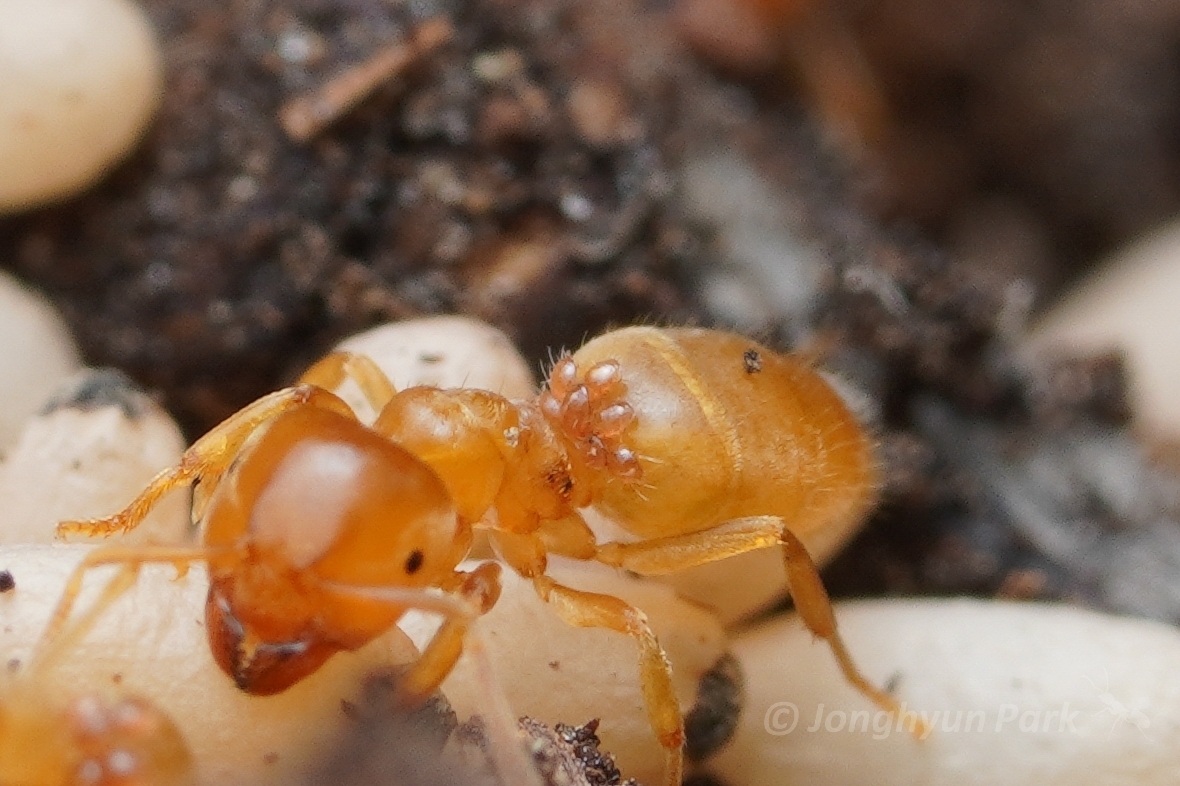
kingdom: Animalia
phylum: Arthropoda
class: Insecta
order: Hymenoptera
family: Formicidae
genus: Lasius
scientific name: Lasius nearcticus
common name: New world fuzzy ant
